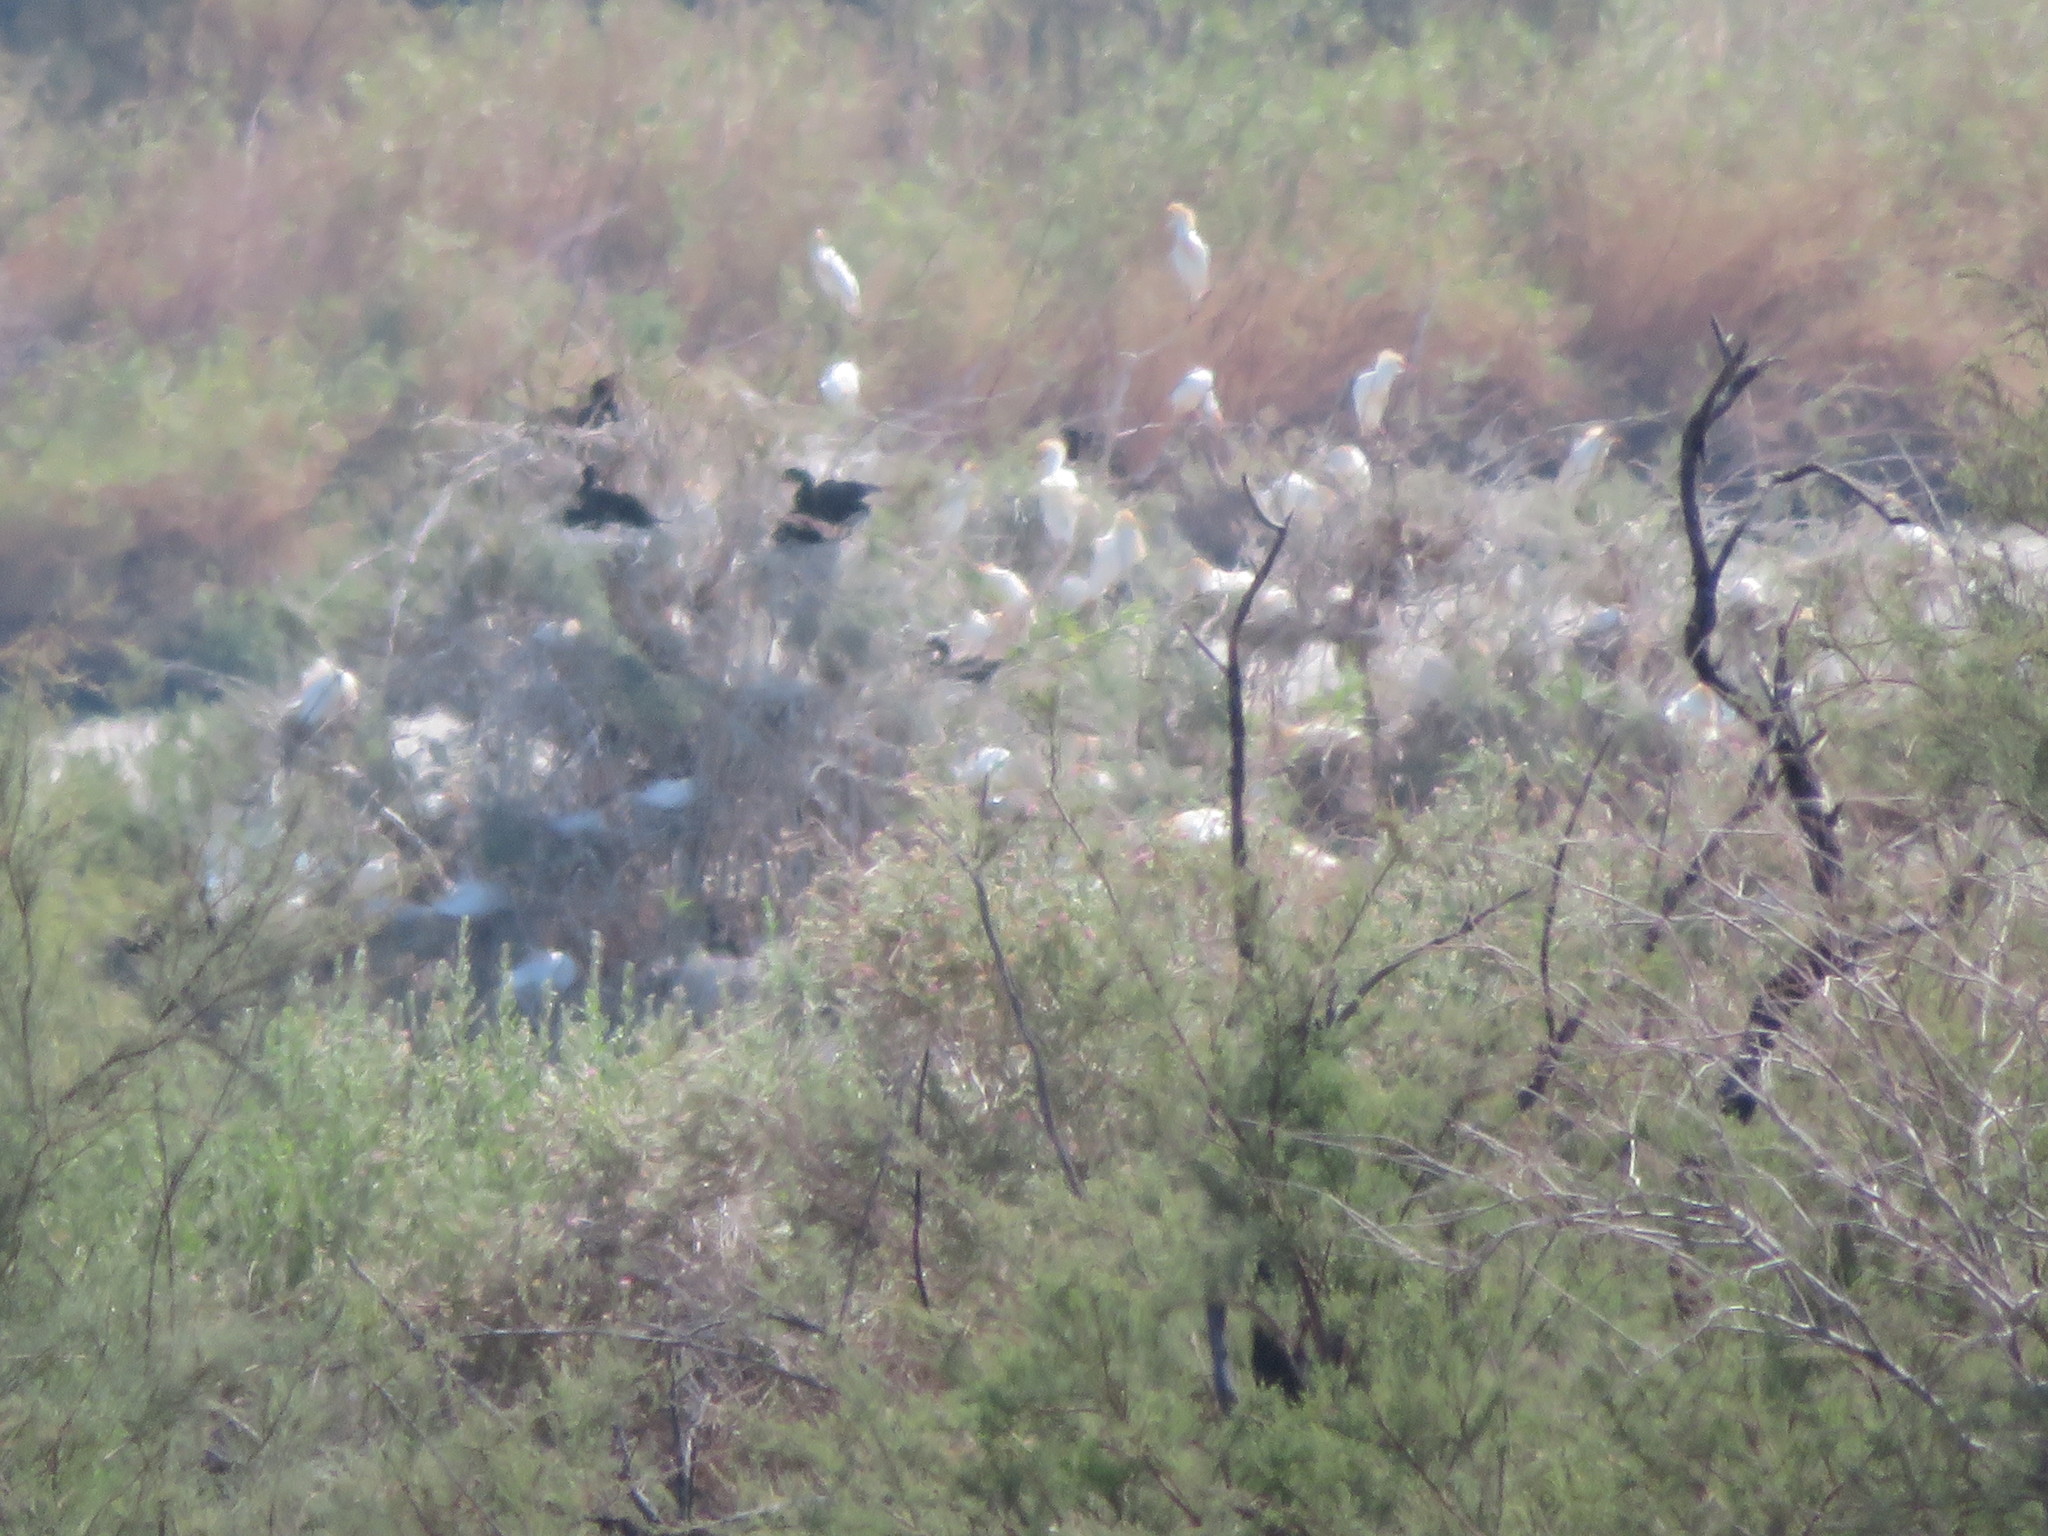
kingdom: Animalia
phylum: Chordata
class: Aves
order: Pelecaniformes
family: Ardeidae
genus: Bubulcus
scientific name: Bubulcus ibis
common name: Cattle egret
